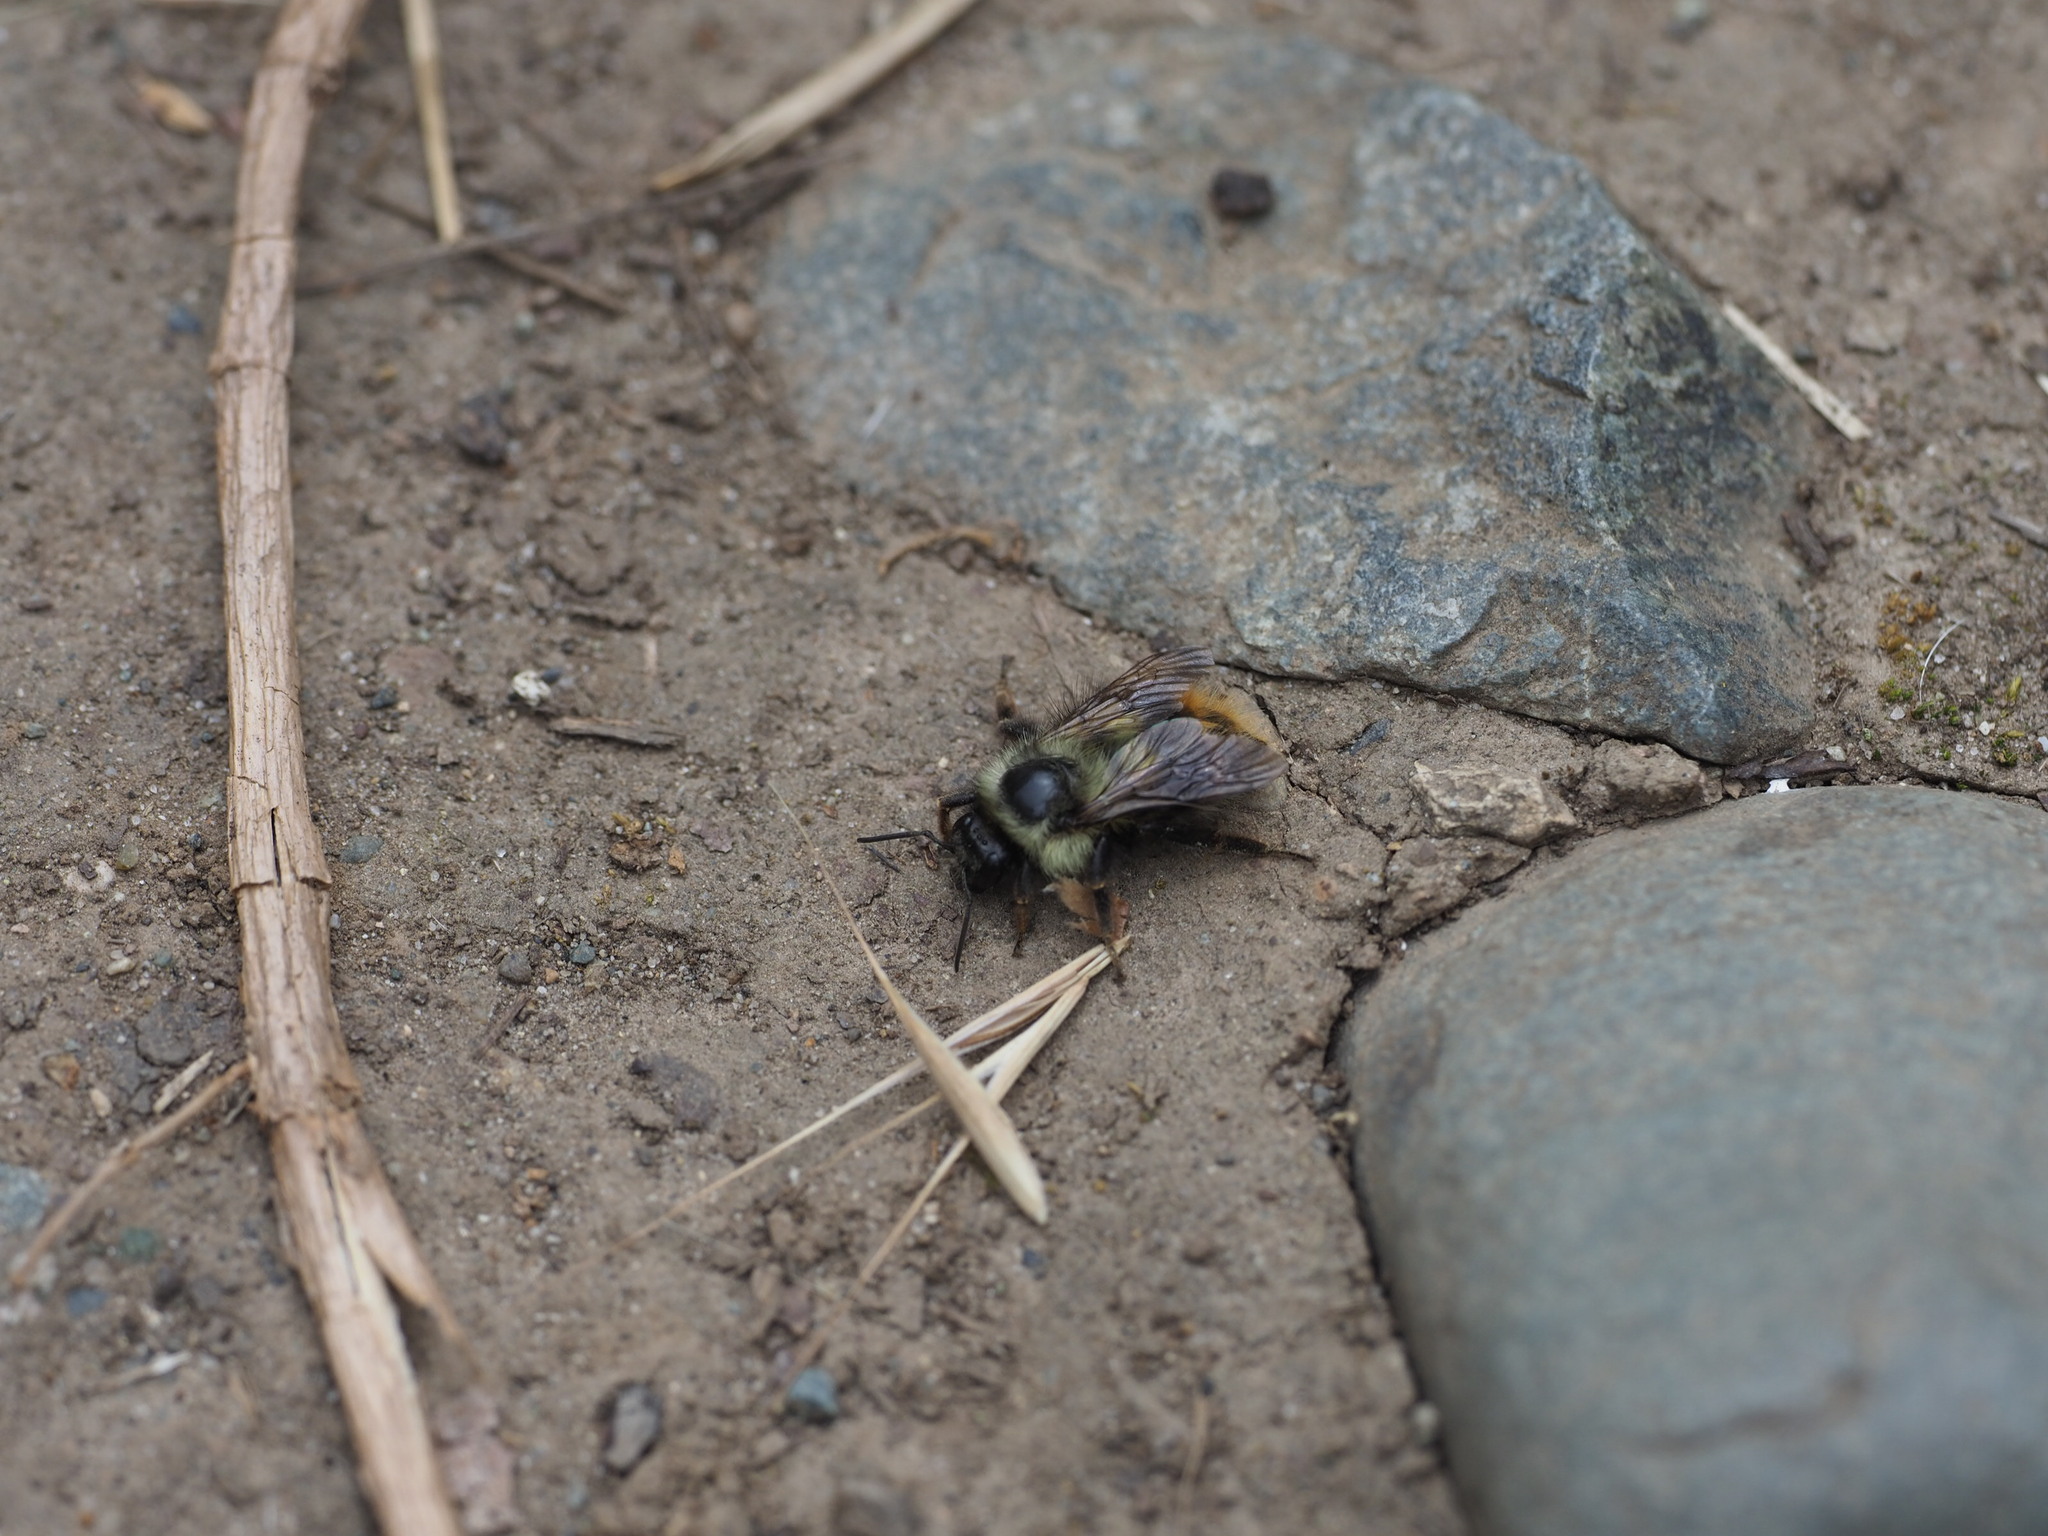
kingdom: Animalia
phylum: Arthropoda
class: Insecta
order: Hymenoptera
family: Apidae
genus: Bombus
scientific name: Bombus mixtus
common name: Fuzzy-horned bumble bee
